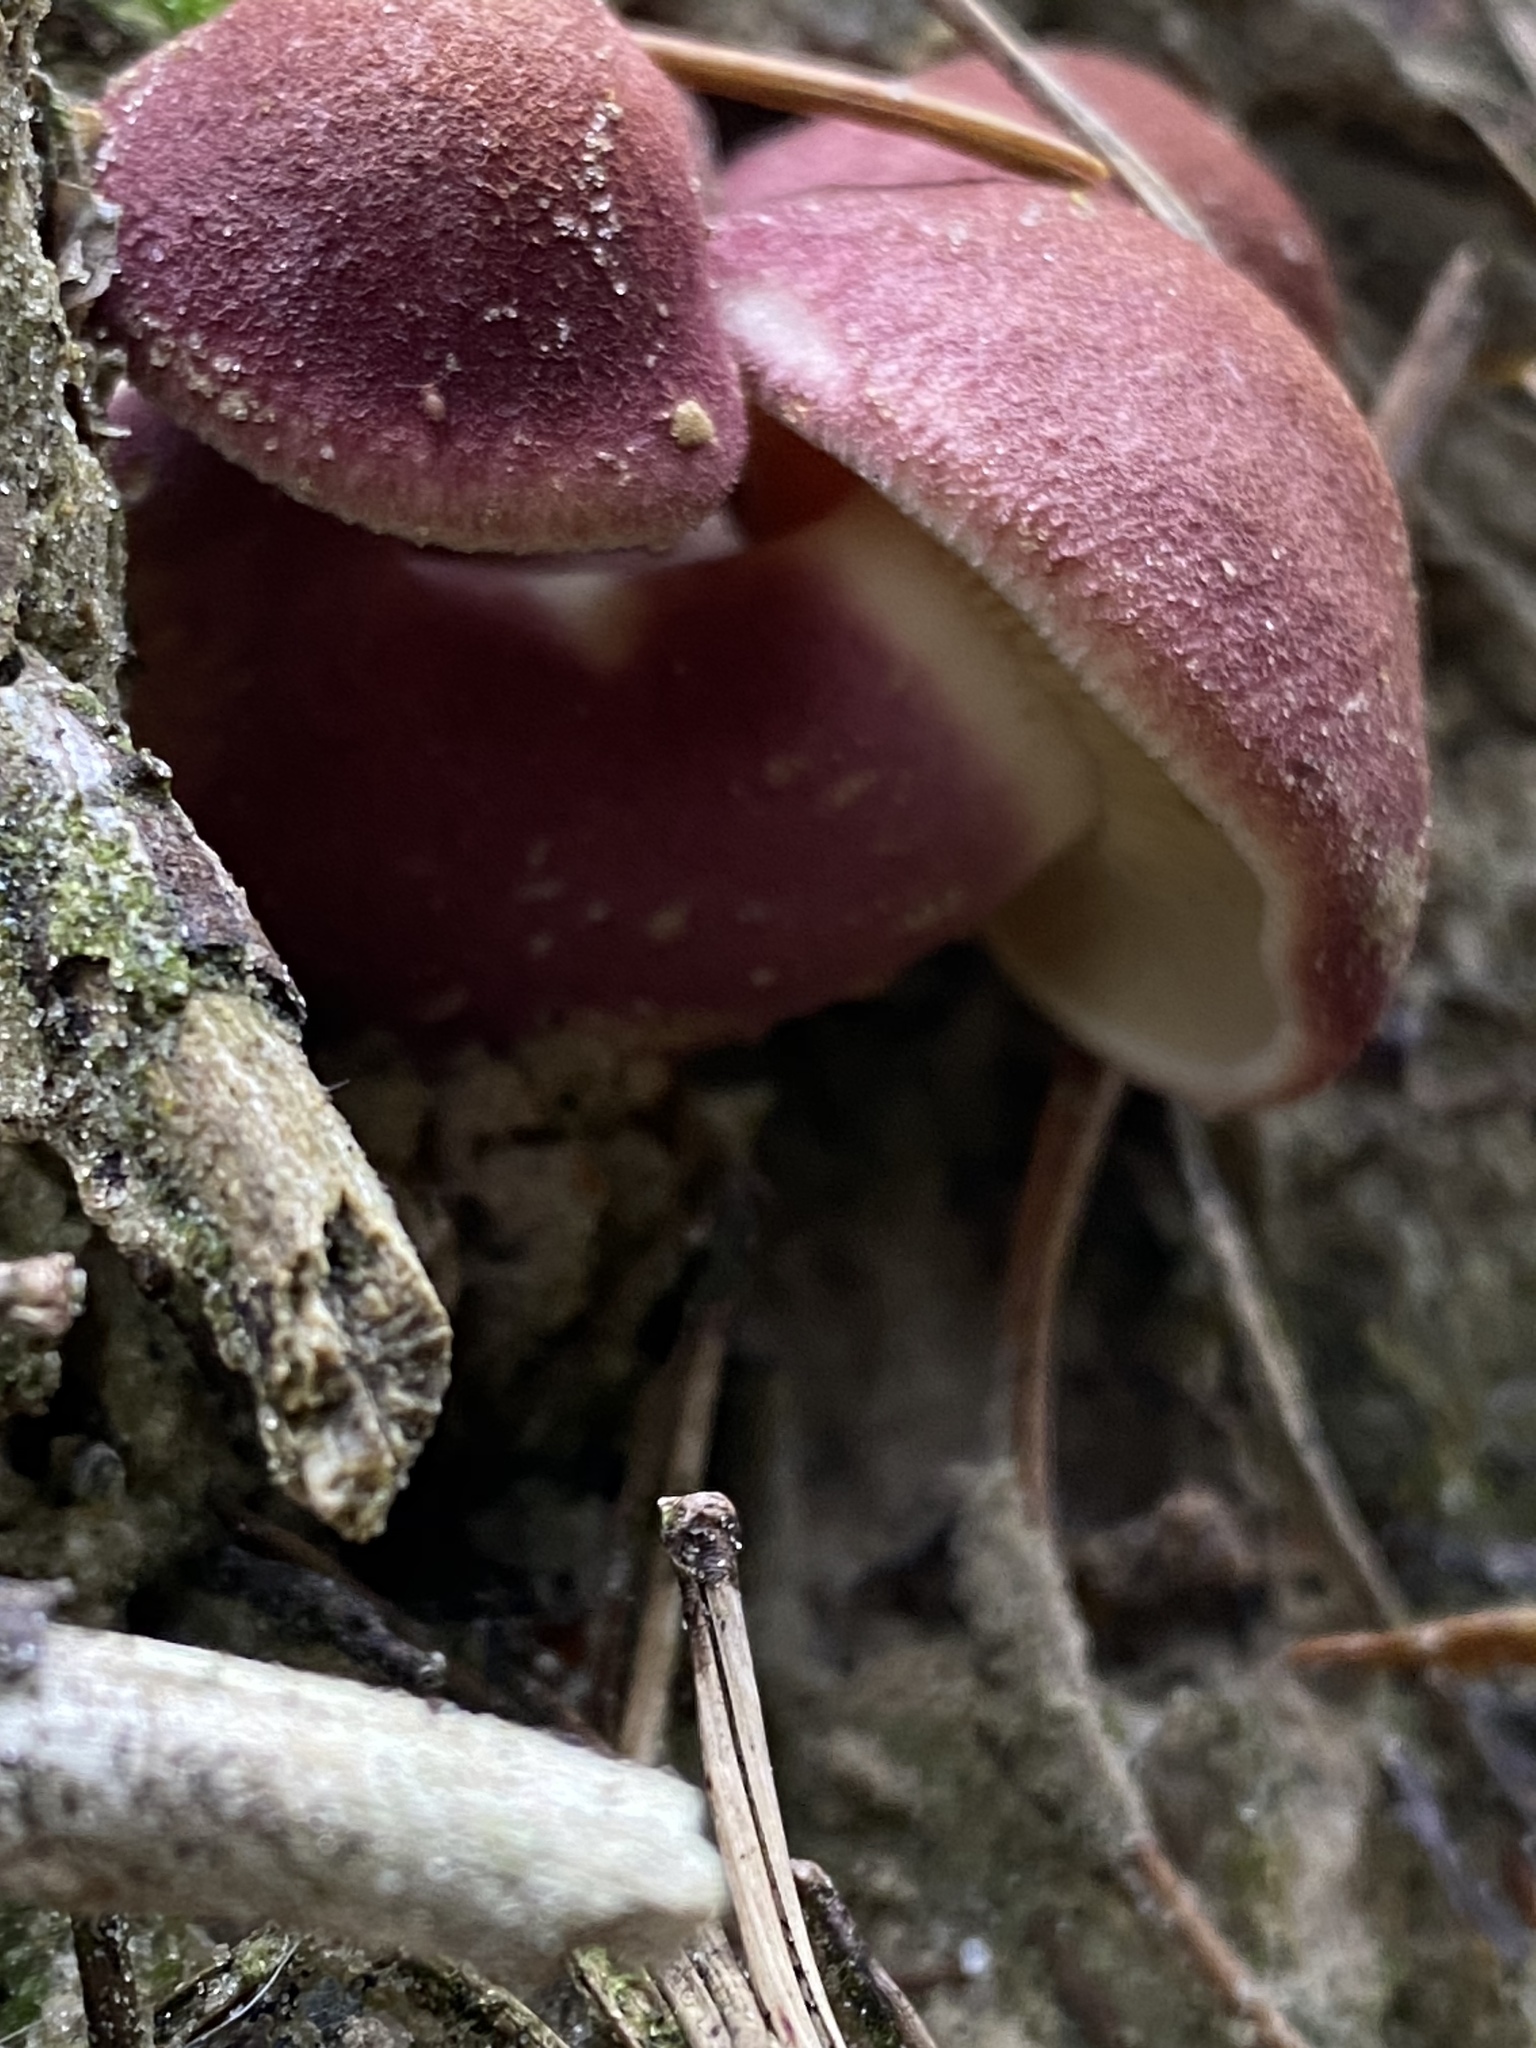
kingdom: Fungi
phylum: Basidiomycota
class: Agaricomycetes
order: Agaricales
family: Tricholomataceae
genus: Tricholomopsis
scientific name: Tricholomopsis rutilans
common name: Plums and custard
